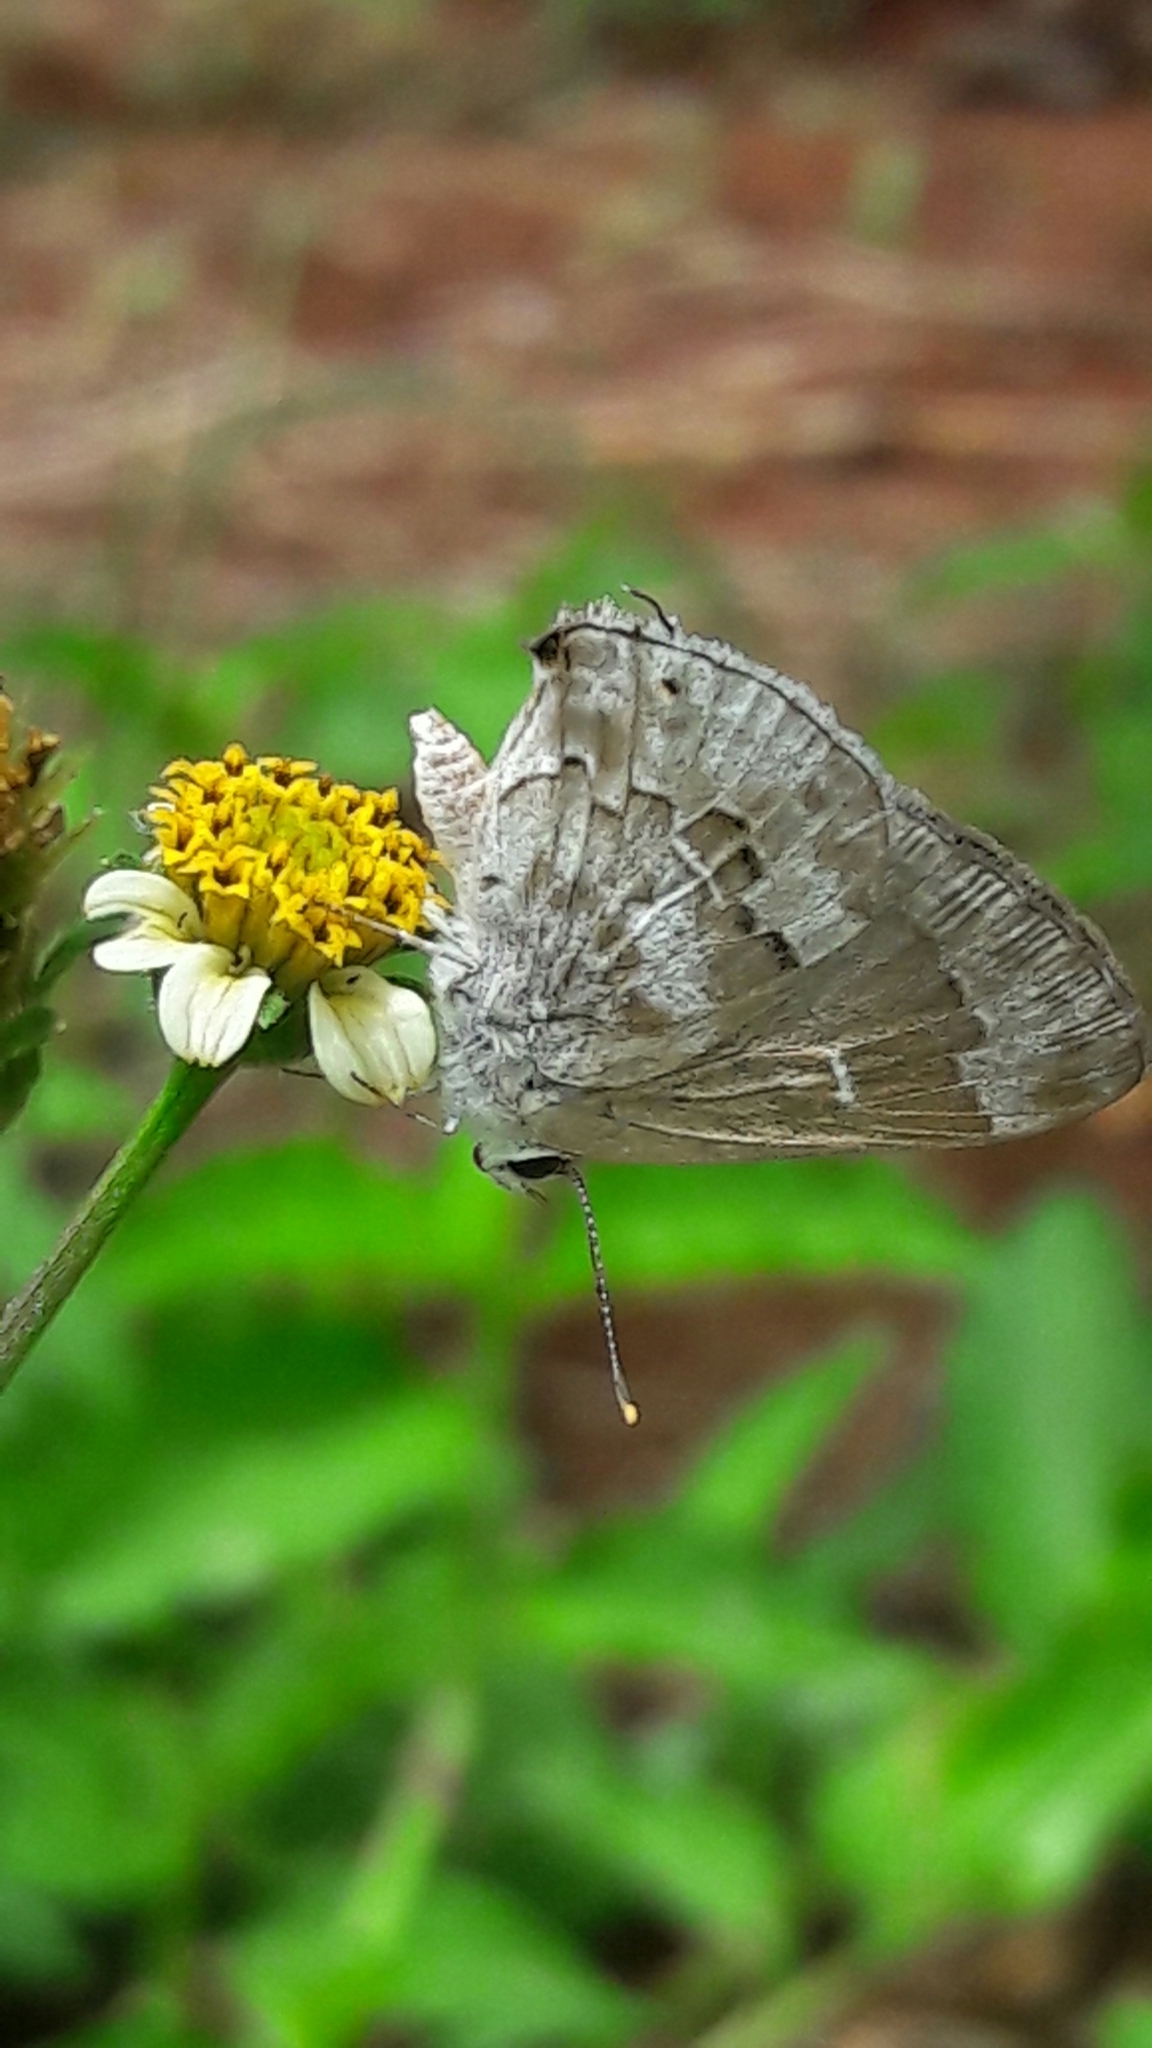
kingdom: Animalia
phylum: Arthropoda
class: Insecta
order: Lepidoptera
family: Lycaenidae
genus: Strymon
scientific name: Strymon mulucha
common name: Mottled scrub-hairstreak
